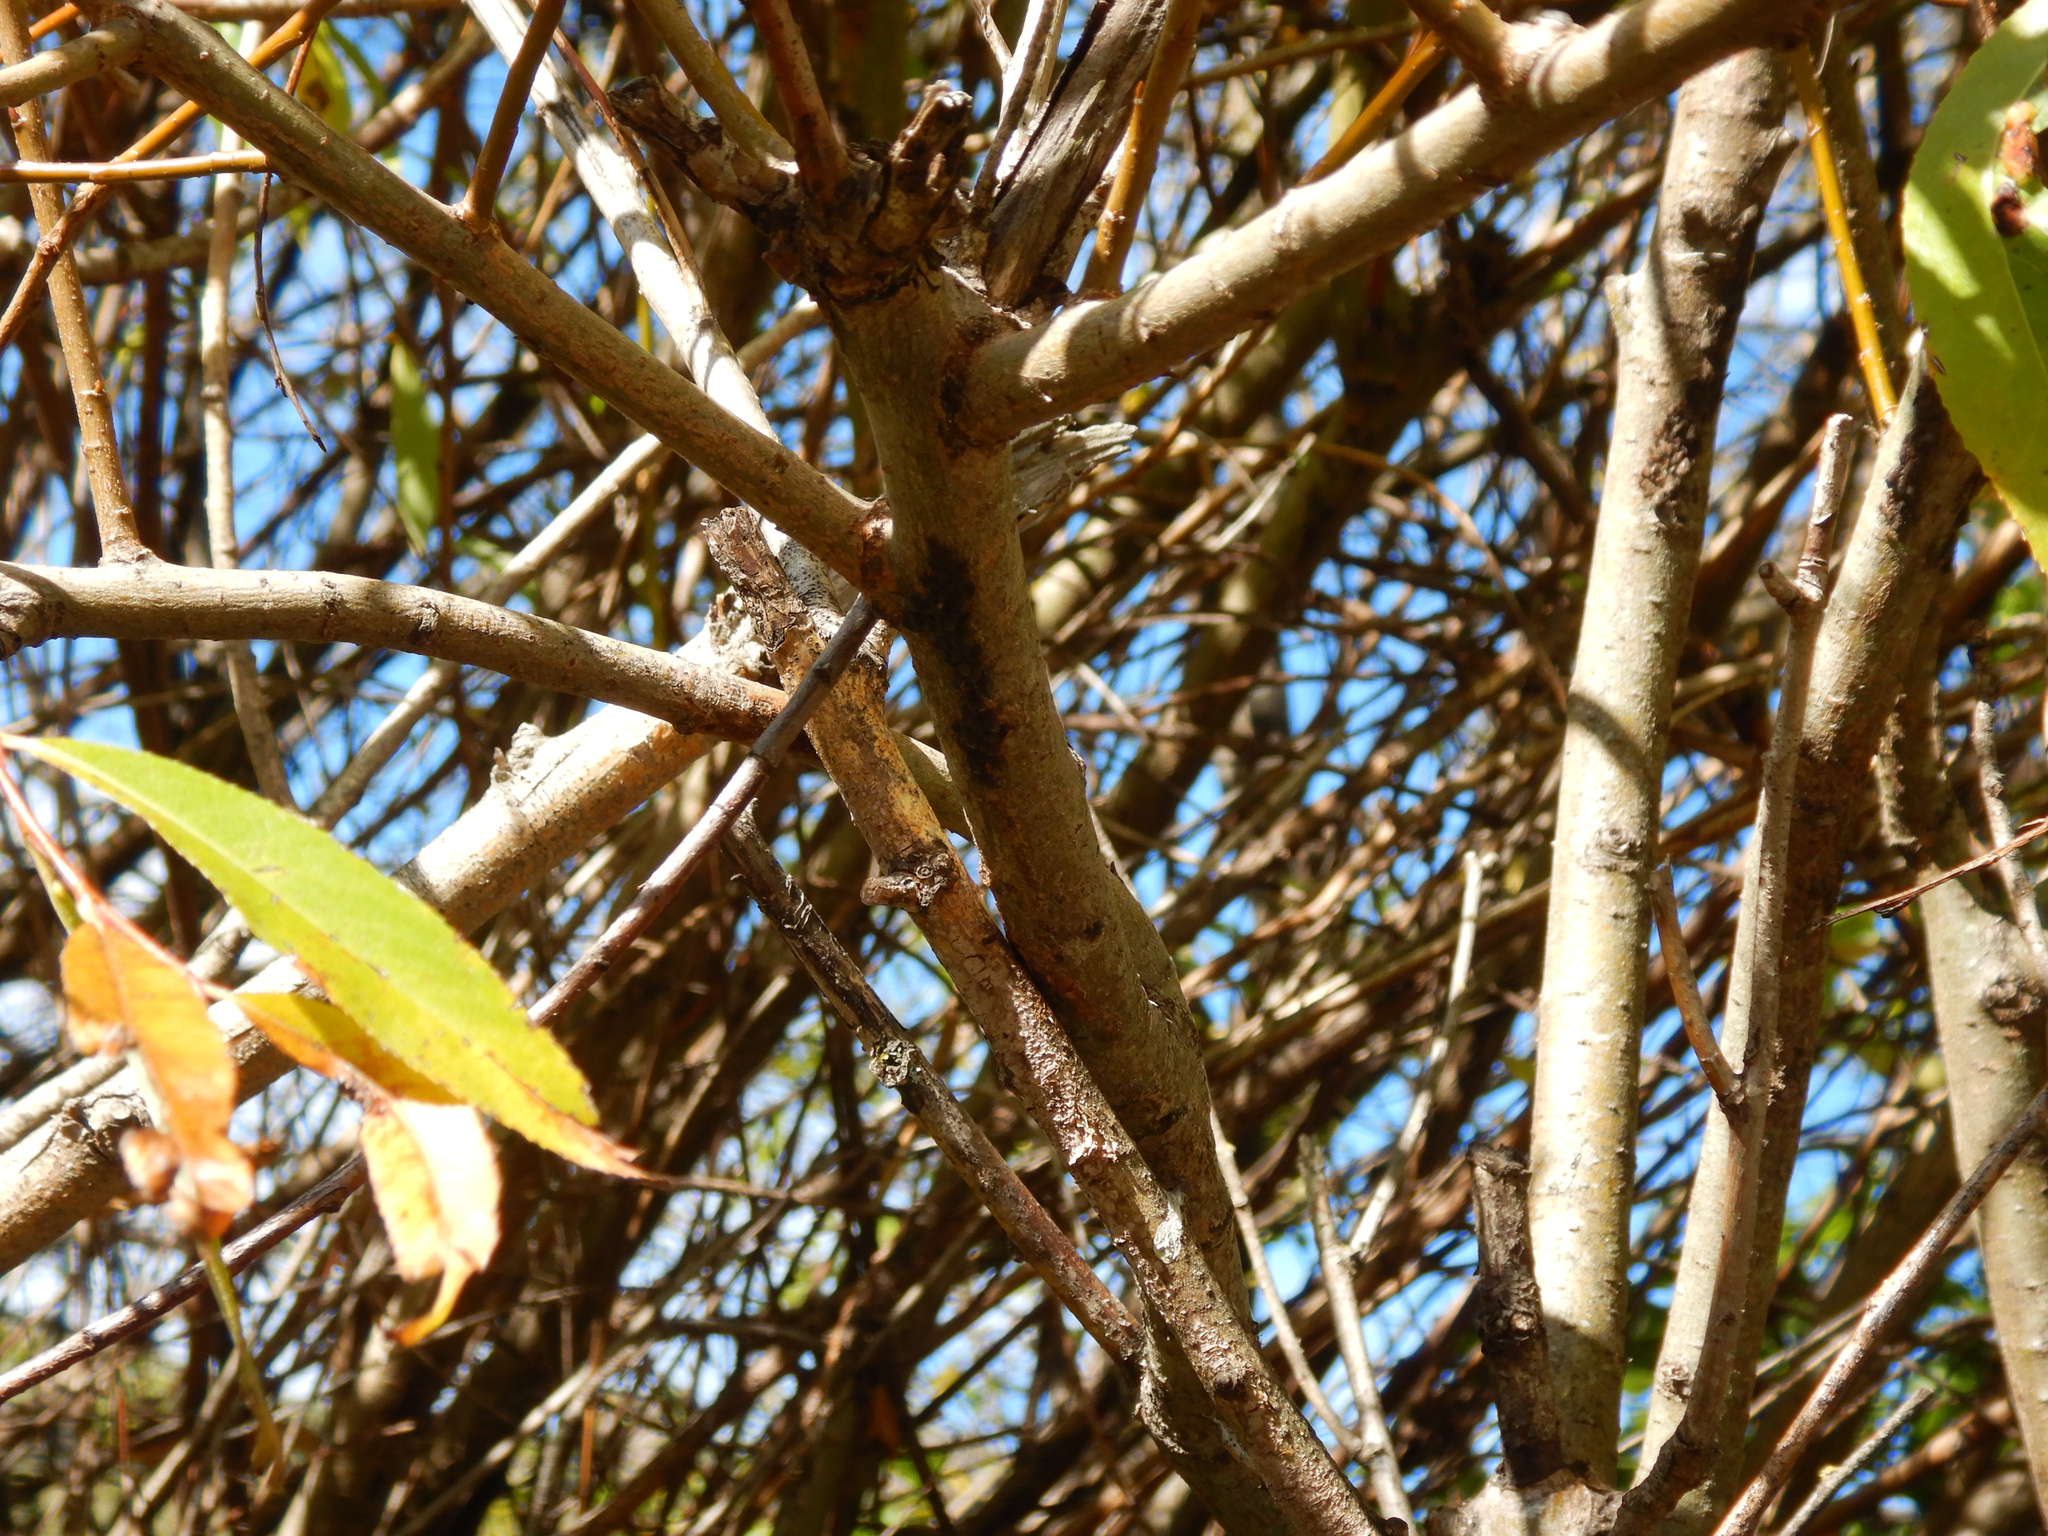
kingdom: Animalia
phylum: Arthropoda
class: Insecta
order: Hemiptera
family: Aphididae
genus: Tuberolachnus
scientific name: Tuberolachnus salignus
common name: Giant willow aphid
